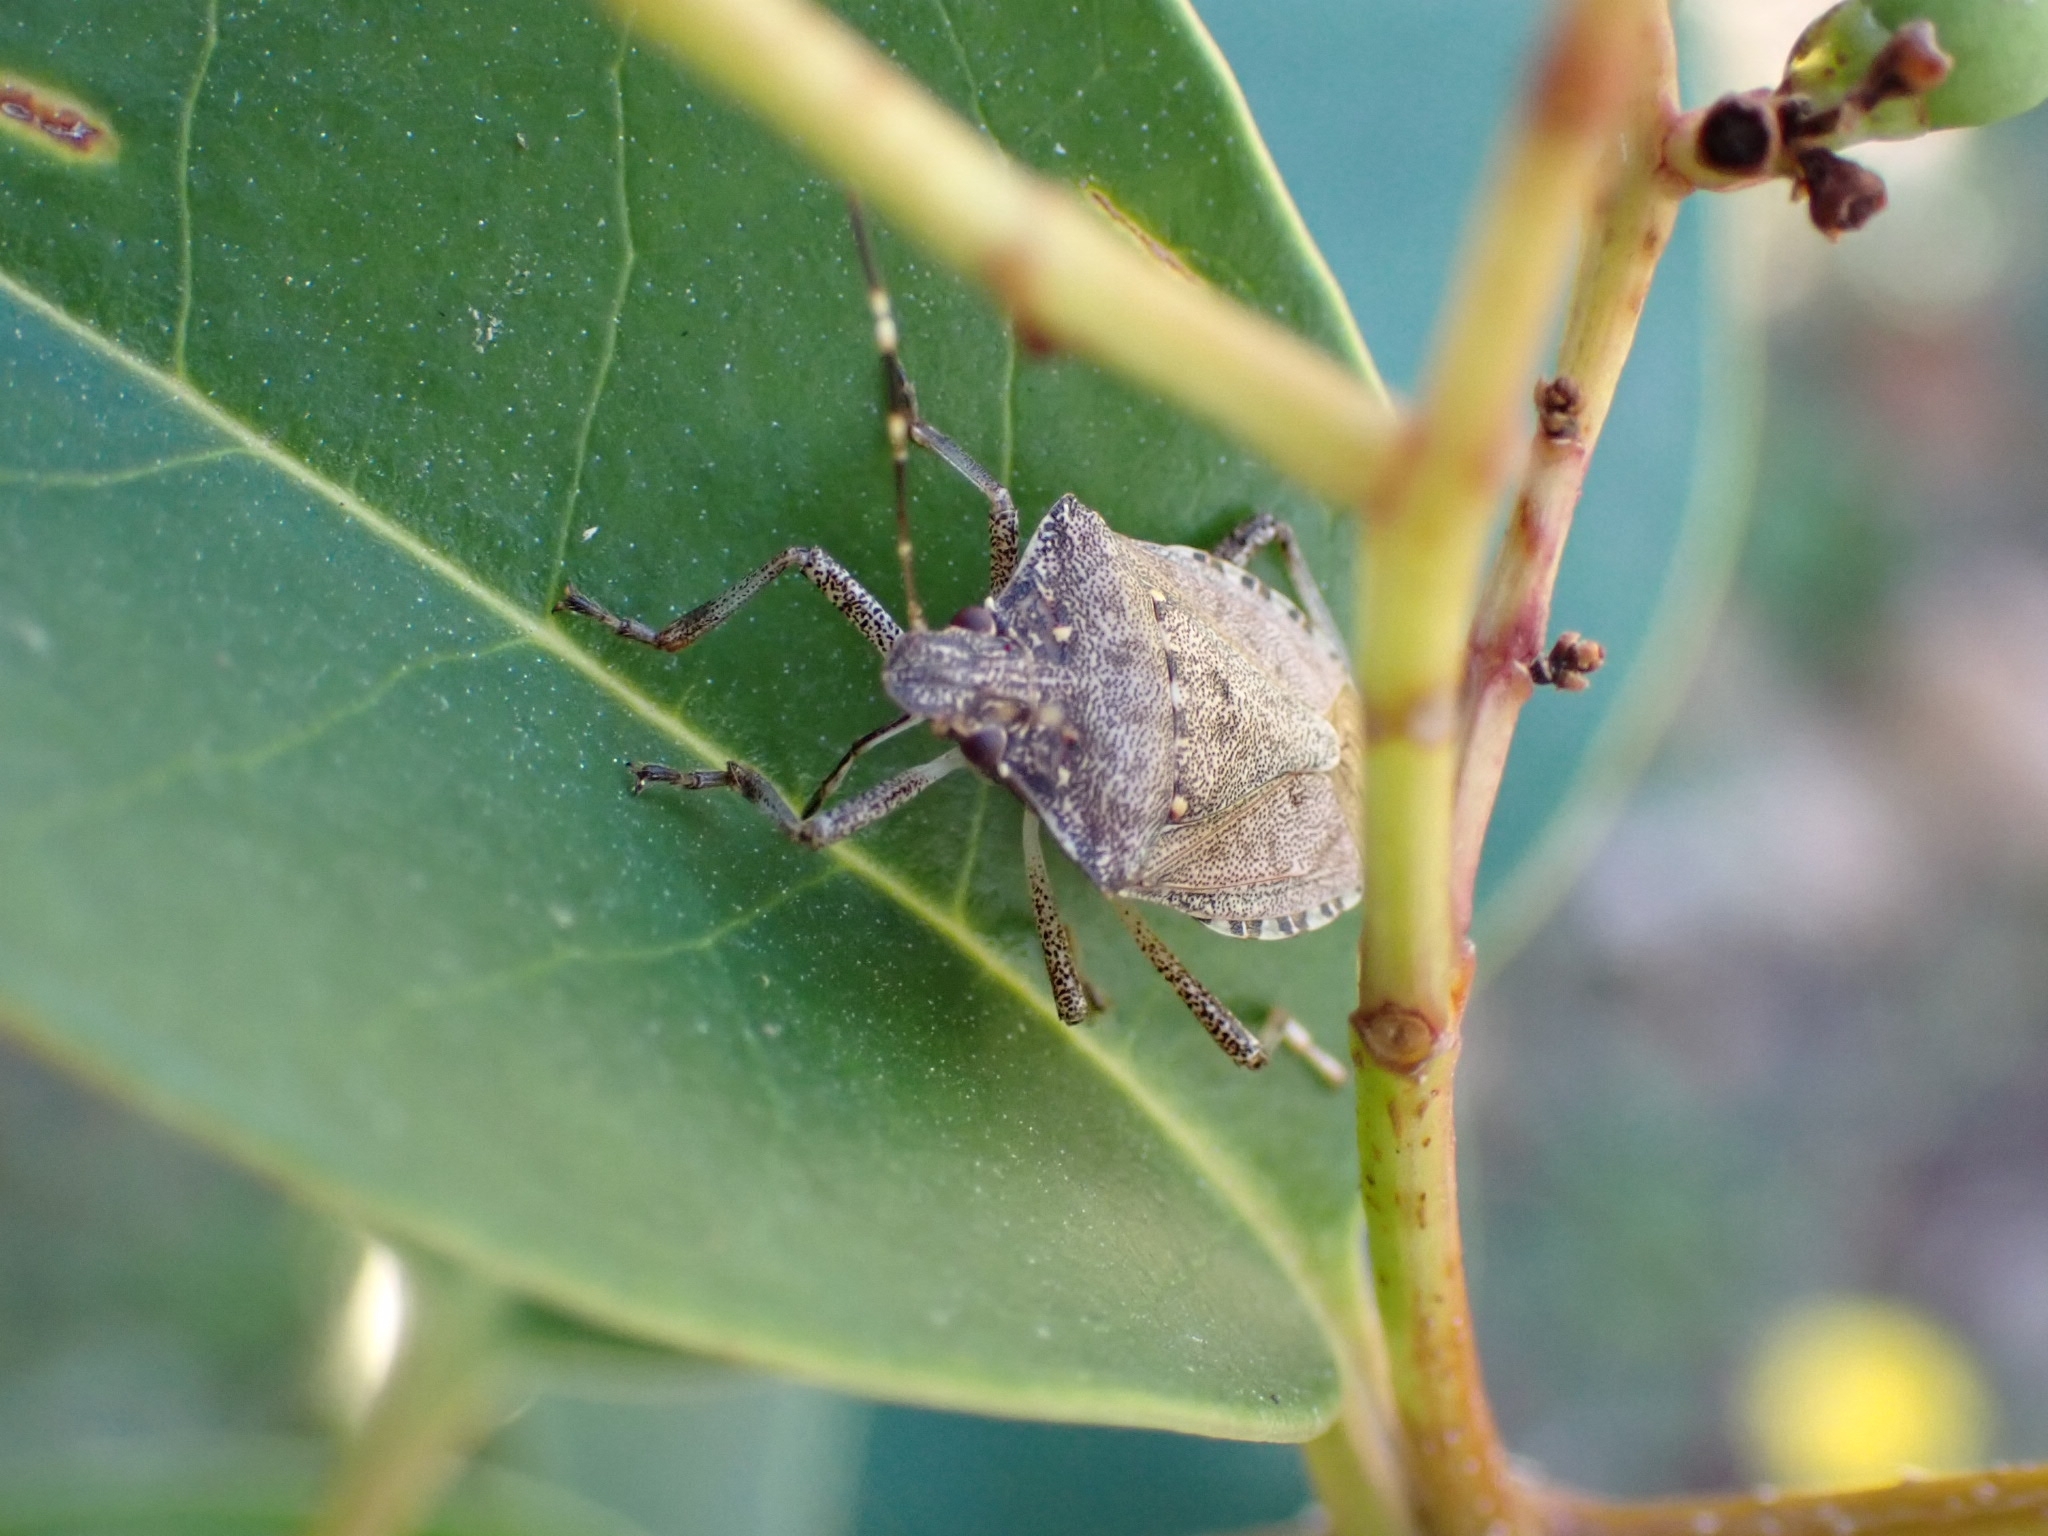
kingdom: Animalia
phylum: Arthropoda
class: Insecta
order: Hemiptera
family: Pentatomidae
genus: Halyomorpha
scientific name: Halyomorpha halys
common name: Brown marmorated stink bug
